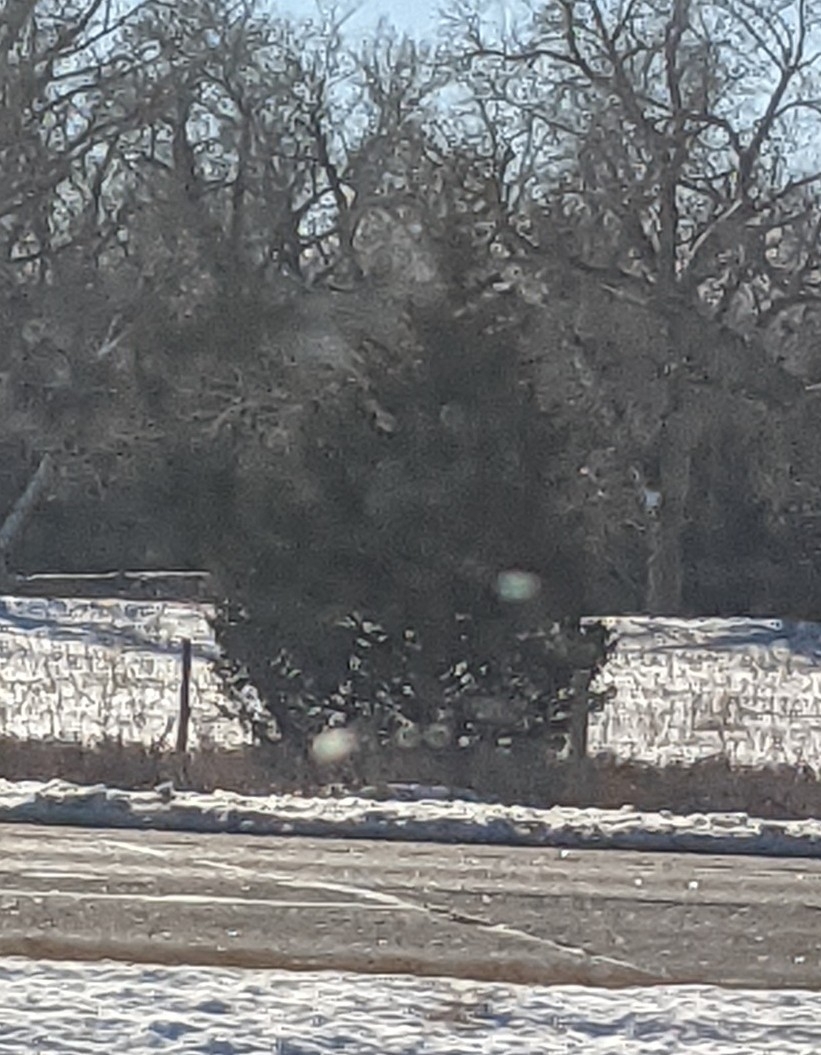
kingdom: Plantae
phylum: Tracheophyta
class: Pinopsida
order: Pinales
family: Cupressaceae
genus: Juniperus
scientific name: Juniperus virginiana
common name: Red juniper
